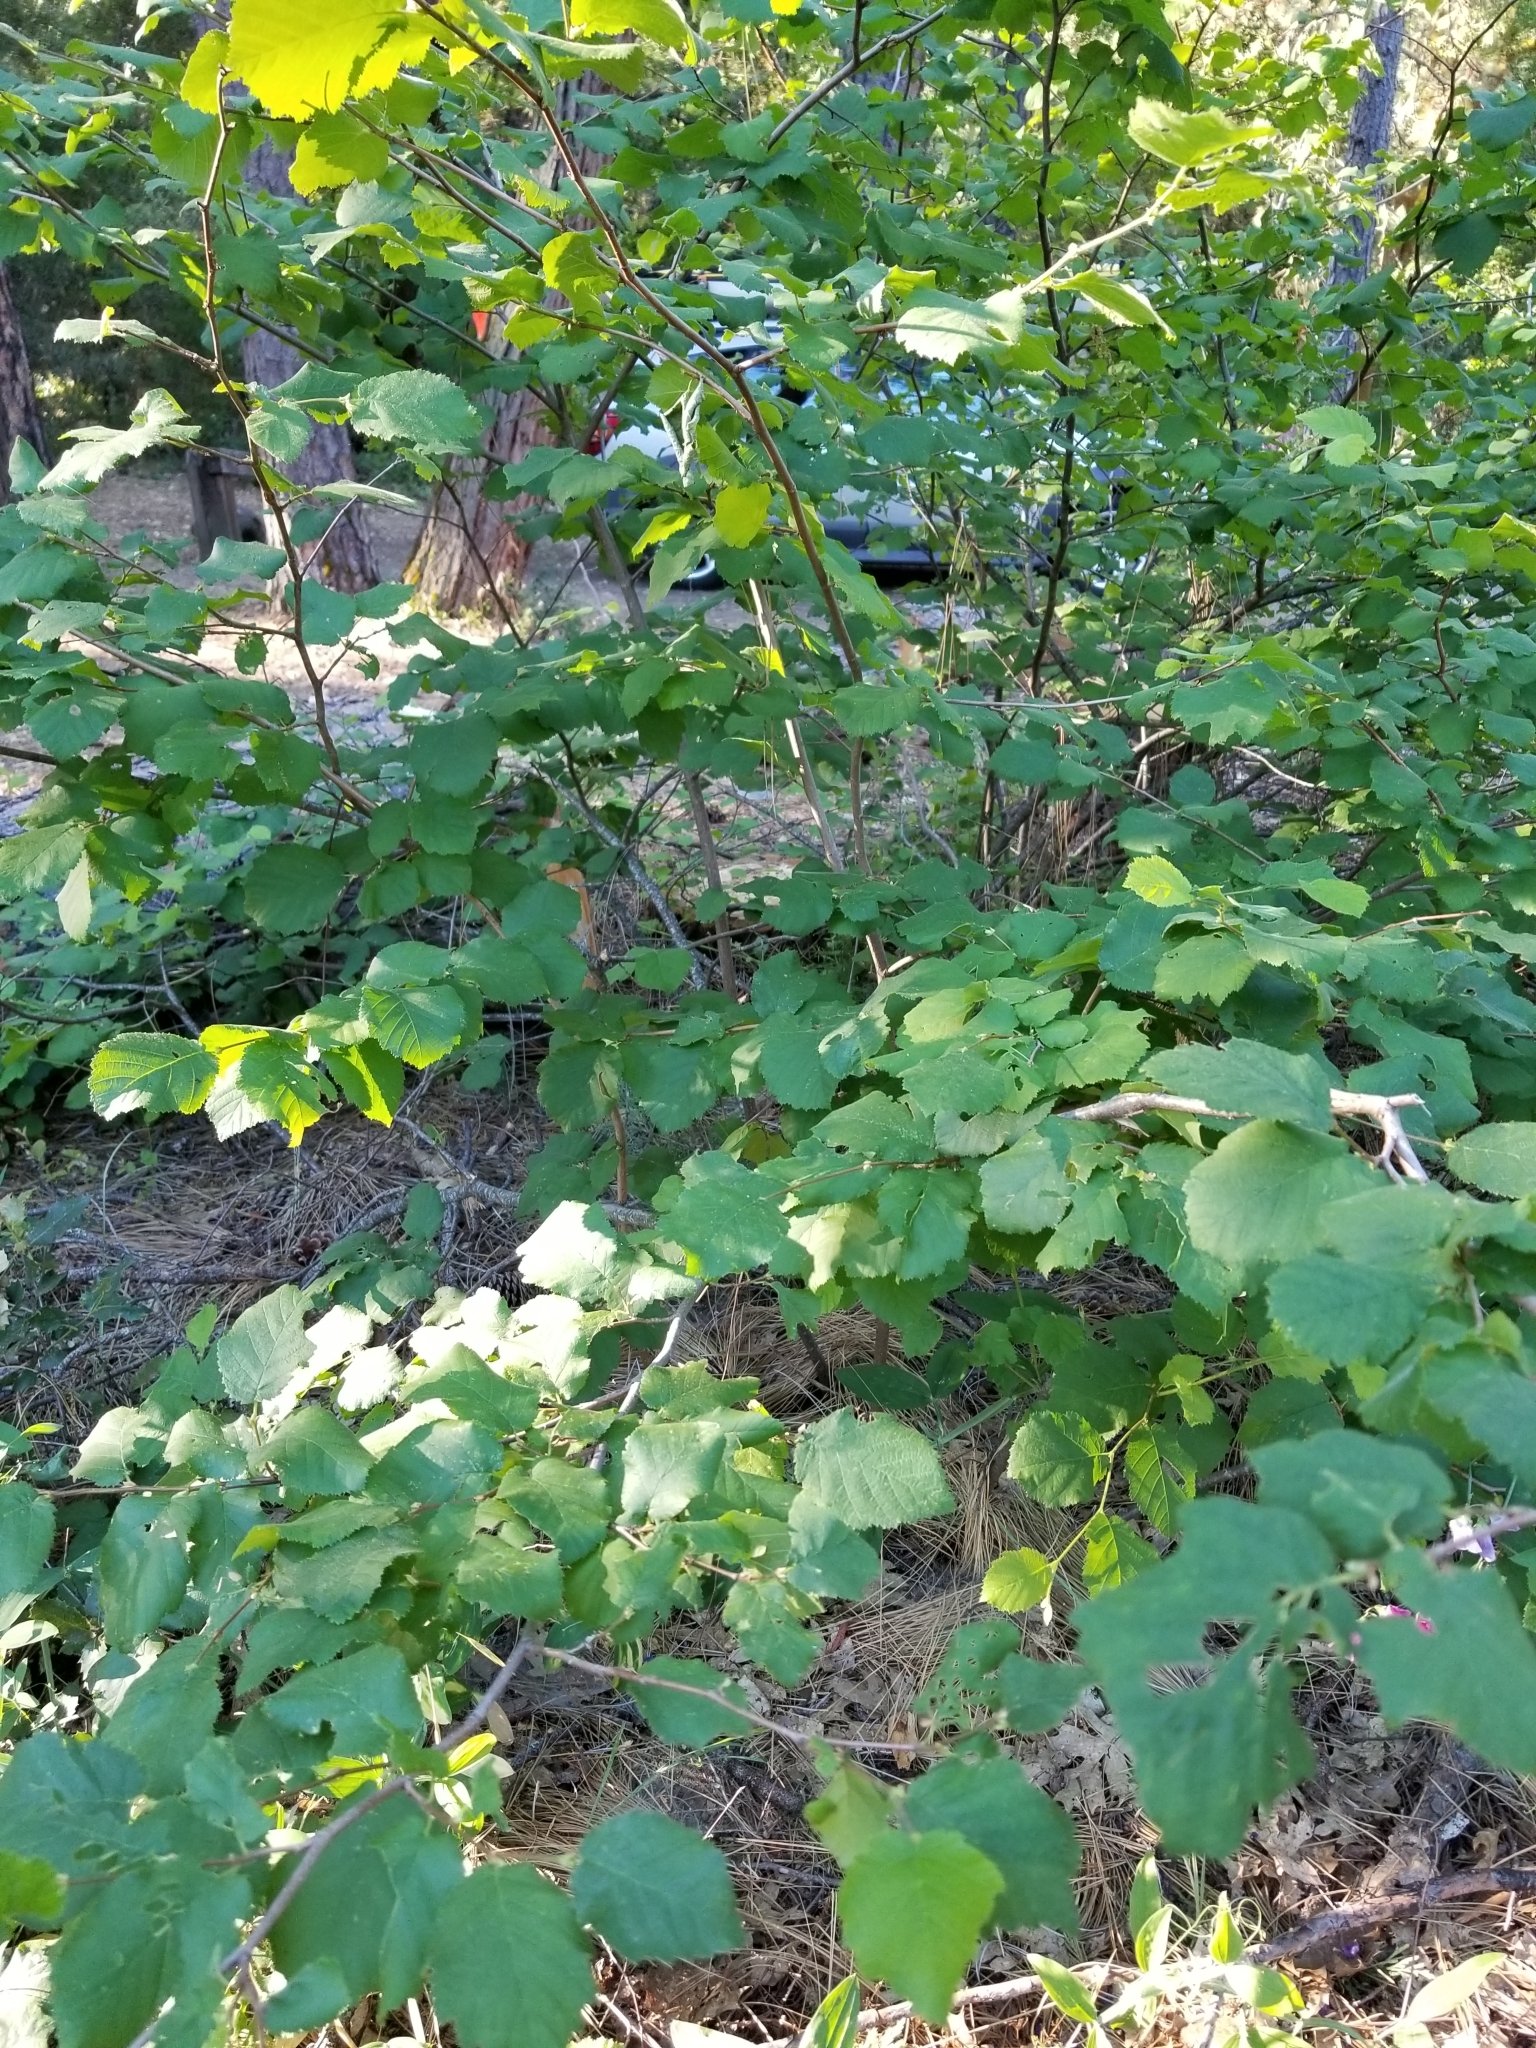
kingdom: Plantae
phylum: Tracheophyta
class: Magnoliopsida
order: Fagales
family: Betulaceae
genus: Corylus
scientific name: Corylus cornuta
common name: Beaked hazel
